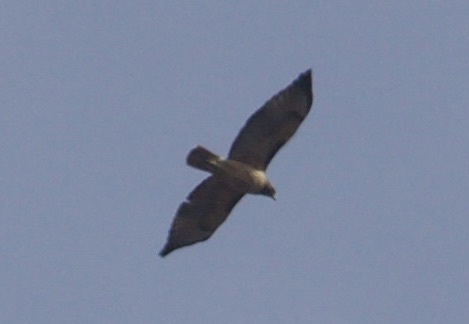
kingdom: Animalia
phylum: Chordata
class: Aves
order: Accipitriformes
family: Accipitridae
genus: Buteo
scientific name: Buteo jamaicensis
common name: Red-tailed hawk
